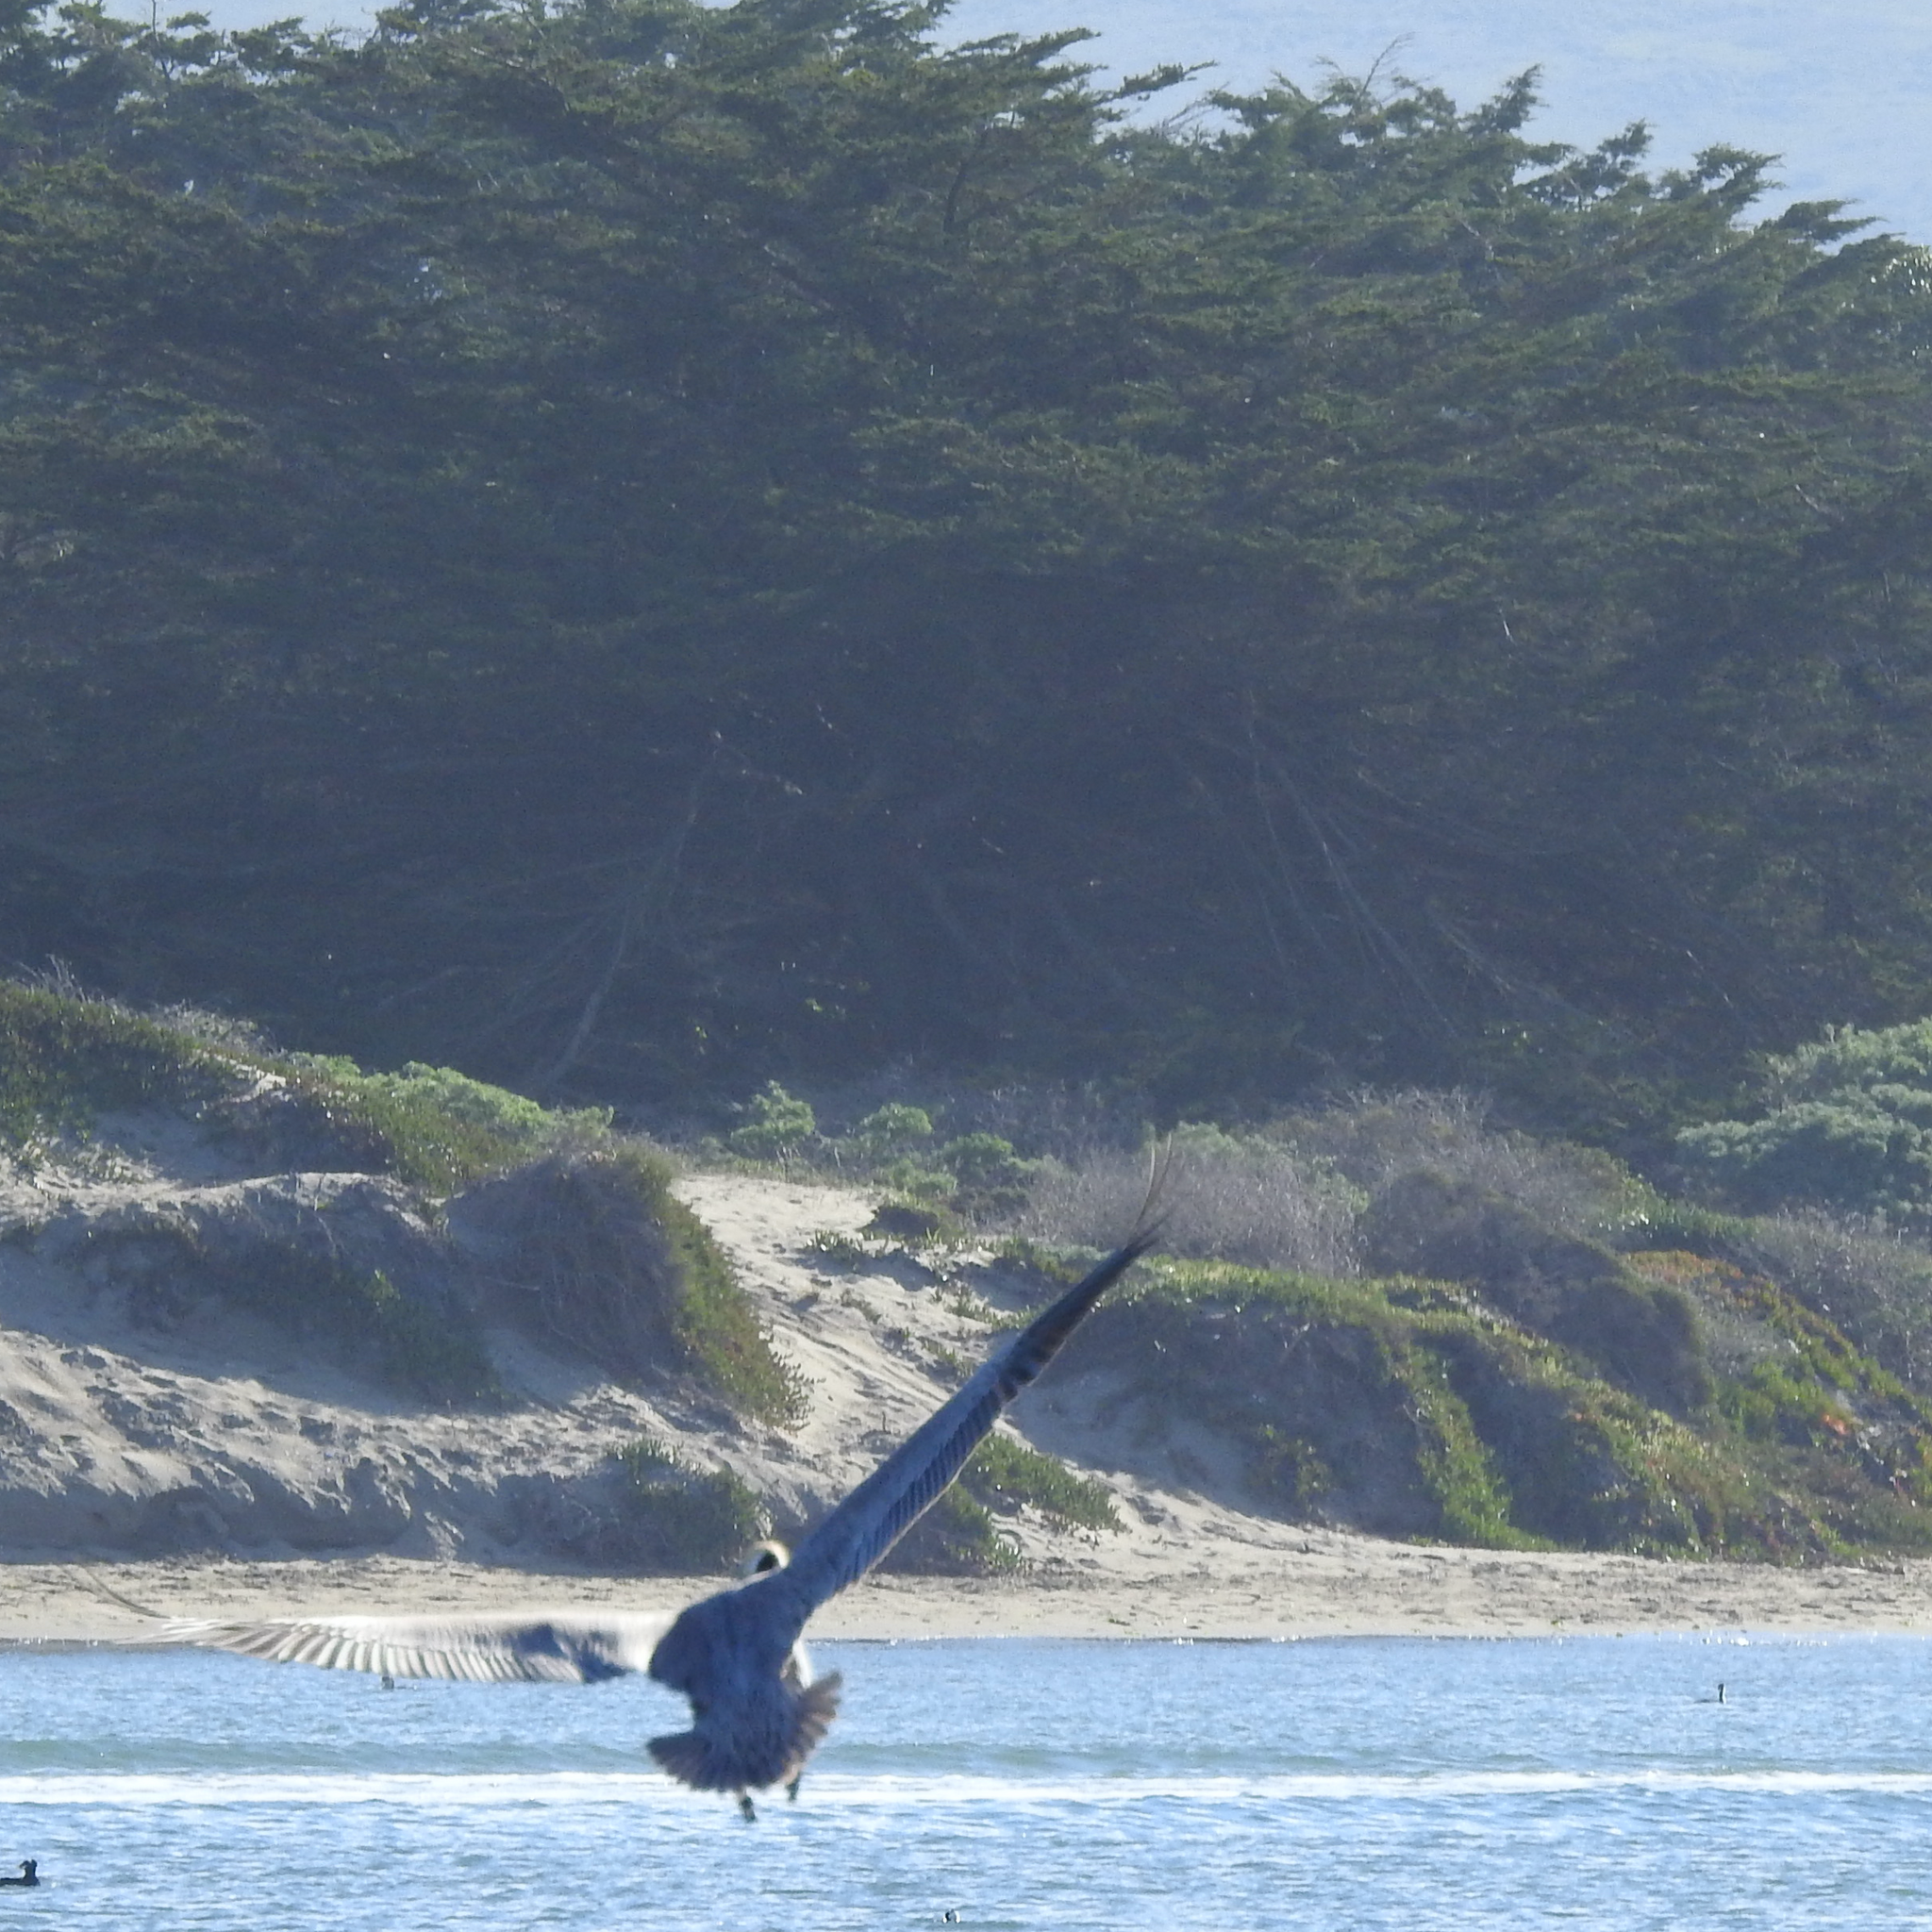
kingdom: Animalia
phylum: Chordata
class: Aves
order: Pelecaniformes
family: Pelecanidae
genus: Pelecanus
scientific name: Pelecanus occidentalis
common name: Brown pelican
